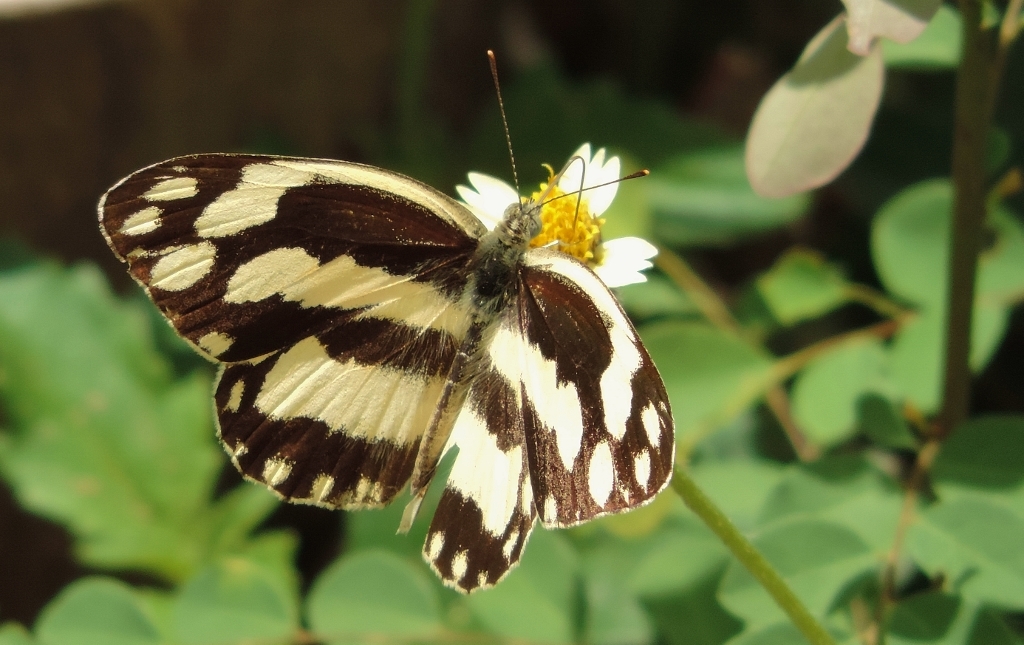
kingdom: Animalia
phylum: Arthropoda
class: Insecta
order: Lepidoptera
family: Pieridae
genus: Pinacopteryx
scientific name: Pinacopteryx eriphia
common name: Zebra white
